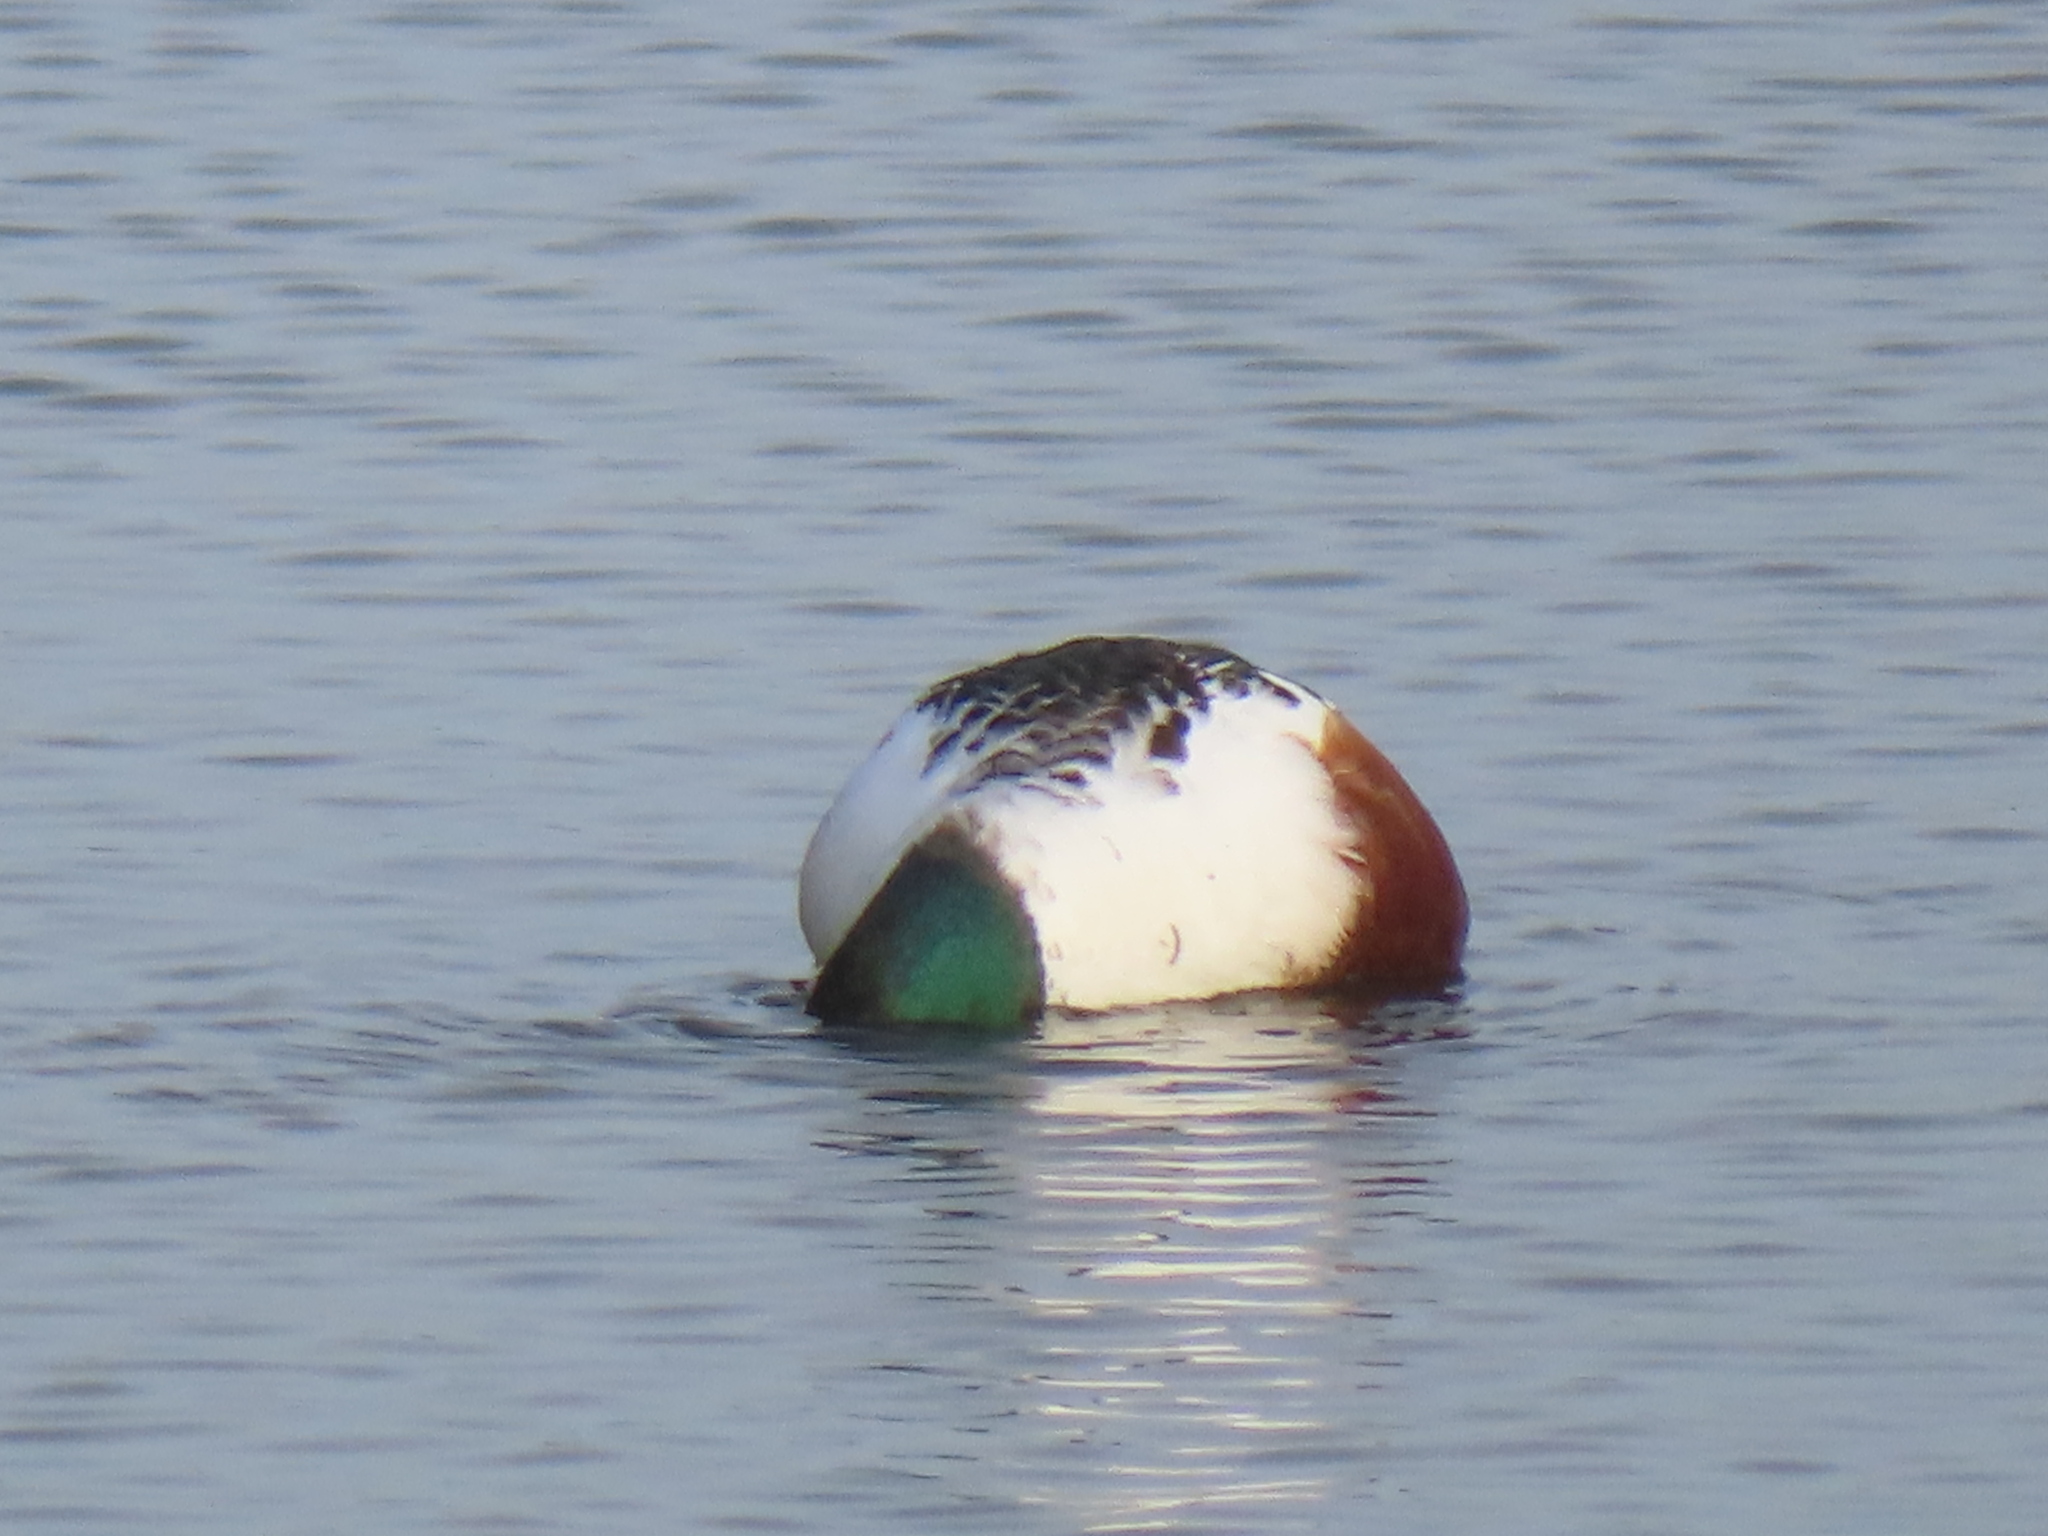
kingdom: Animalia
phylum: Chordata
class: Aves
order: Anseriformes
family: Anatidae
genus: Spatula
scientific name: Spatula clypeata
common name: Northern shoveler
